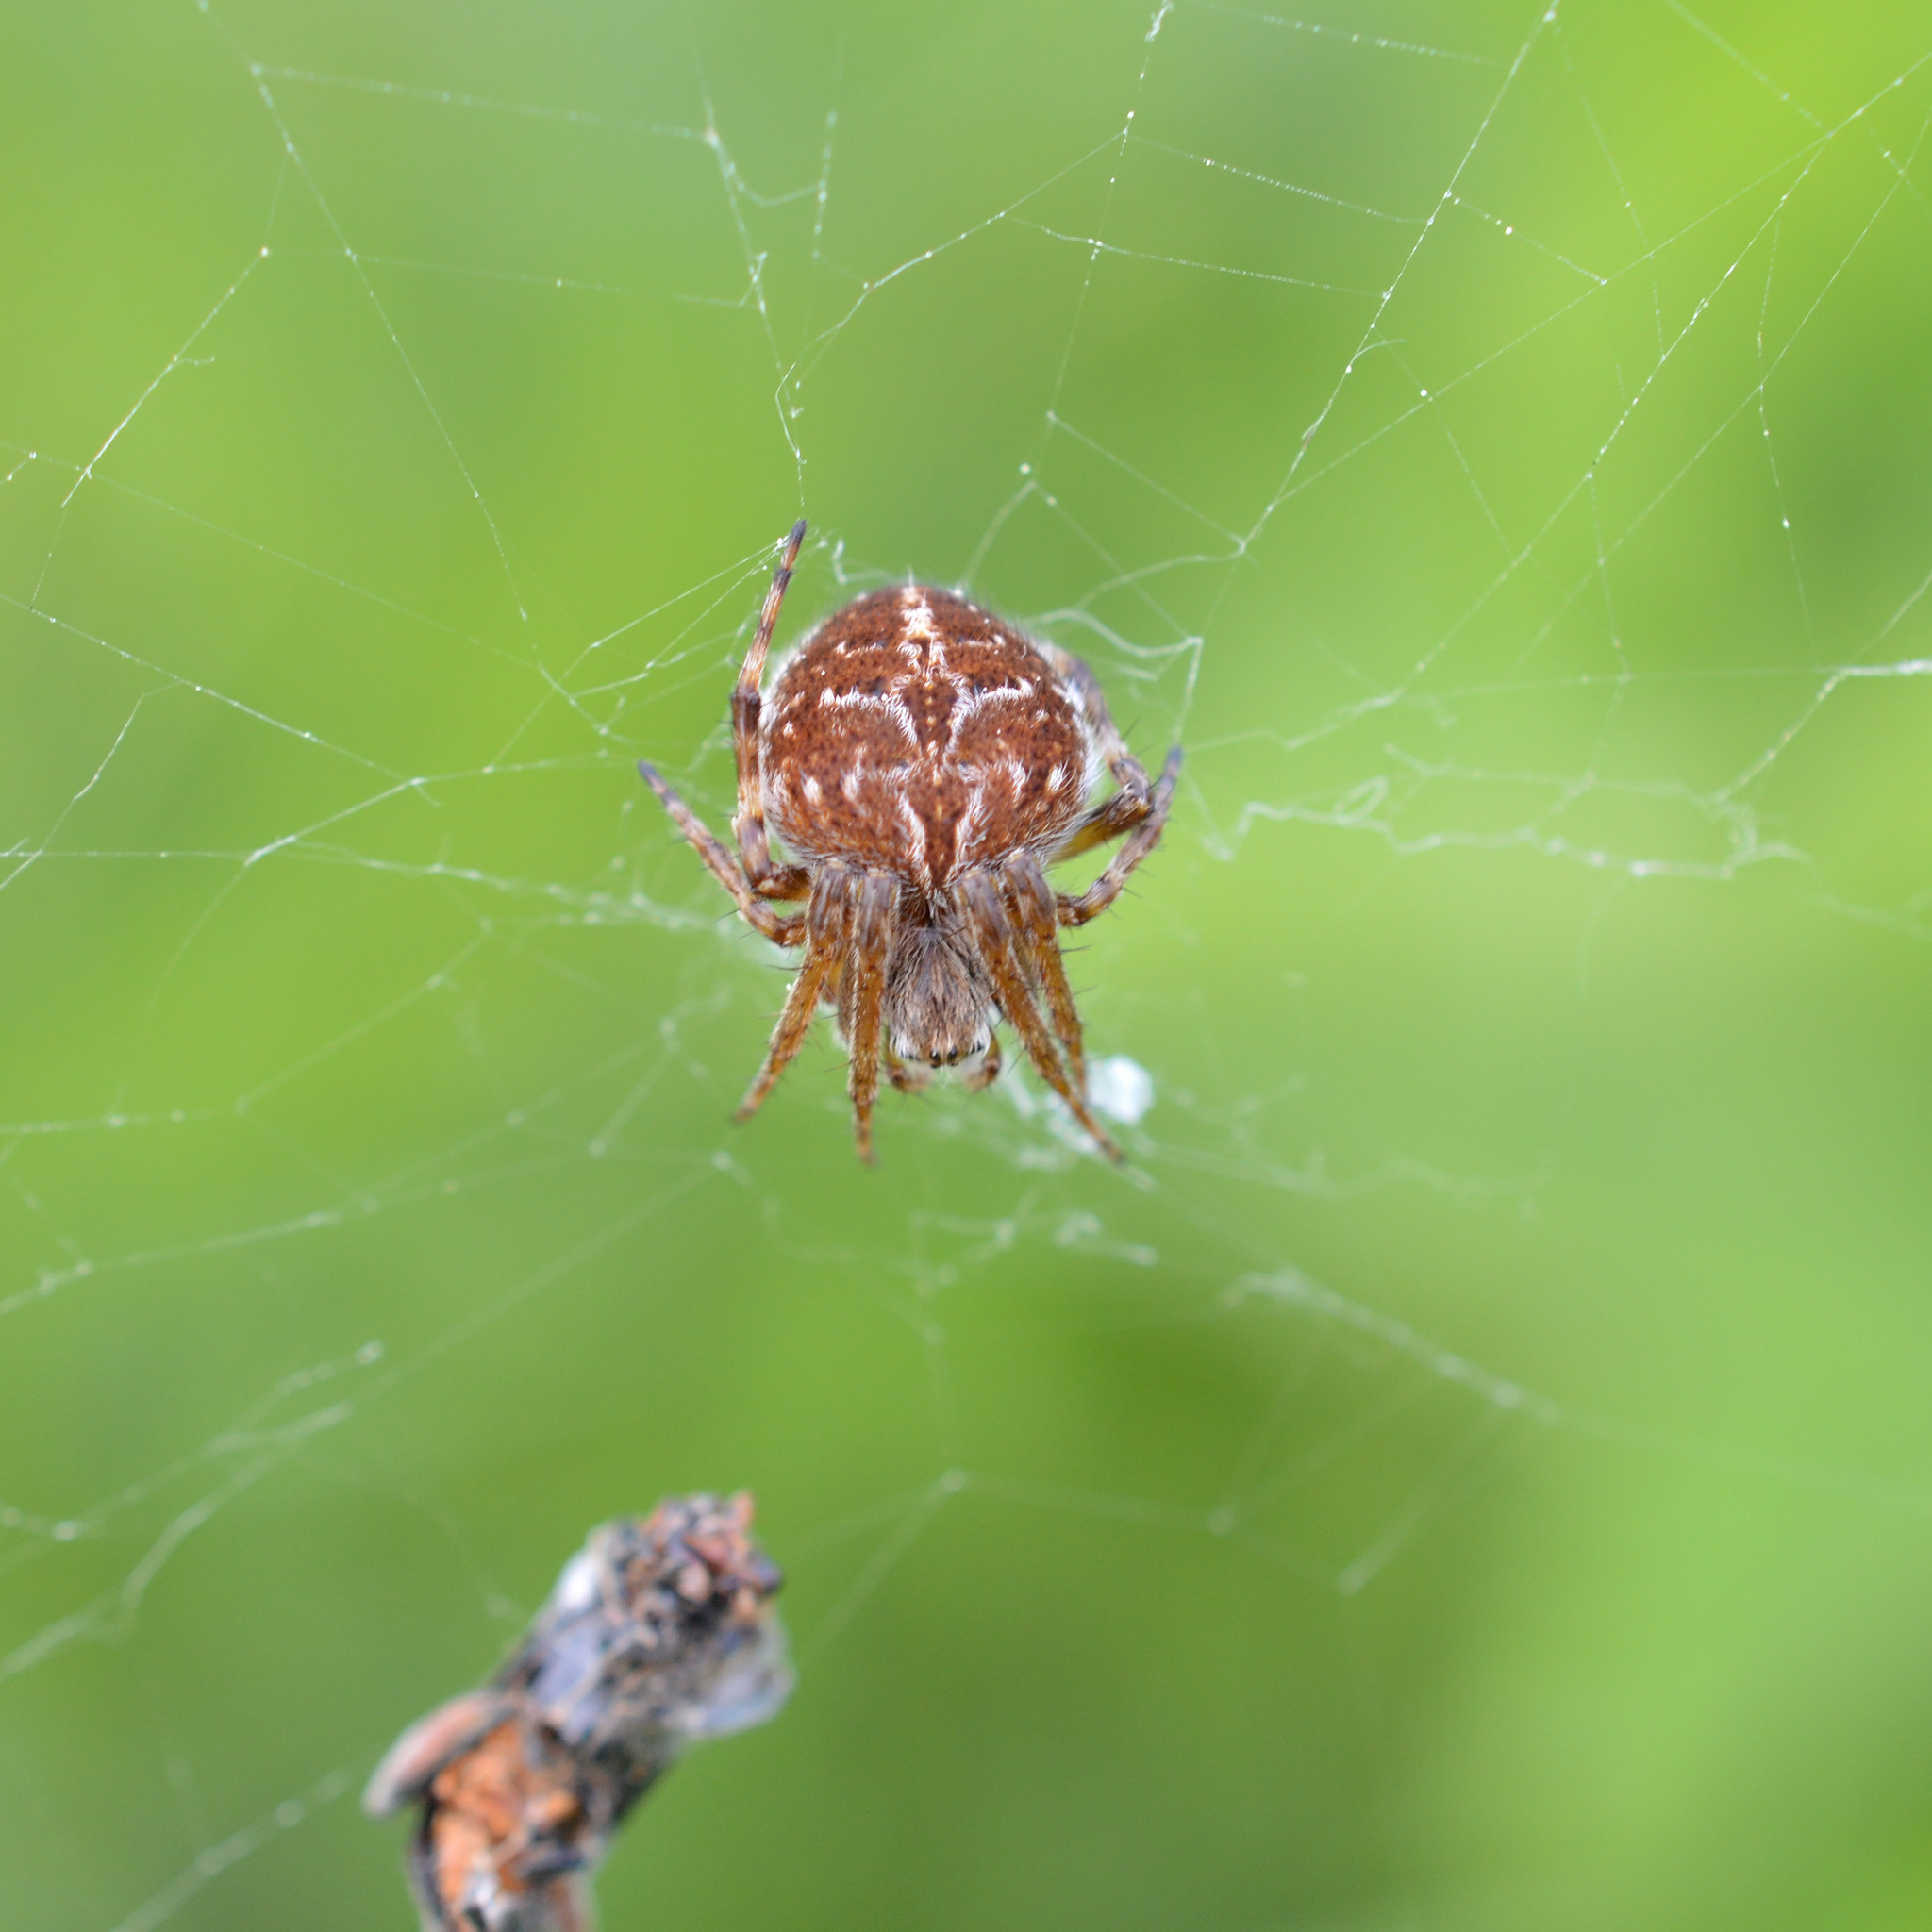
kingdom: Animalia
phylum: Arthropoda
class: Arachnida
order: Araneae
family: Araneidae
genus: Agalenatea
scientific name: Agalenatea redii
